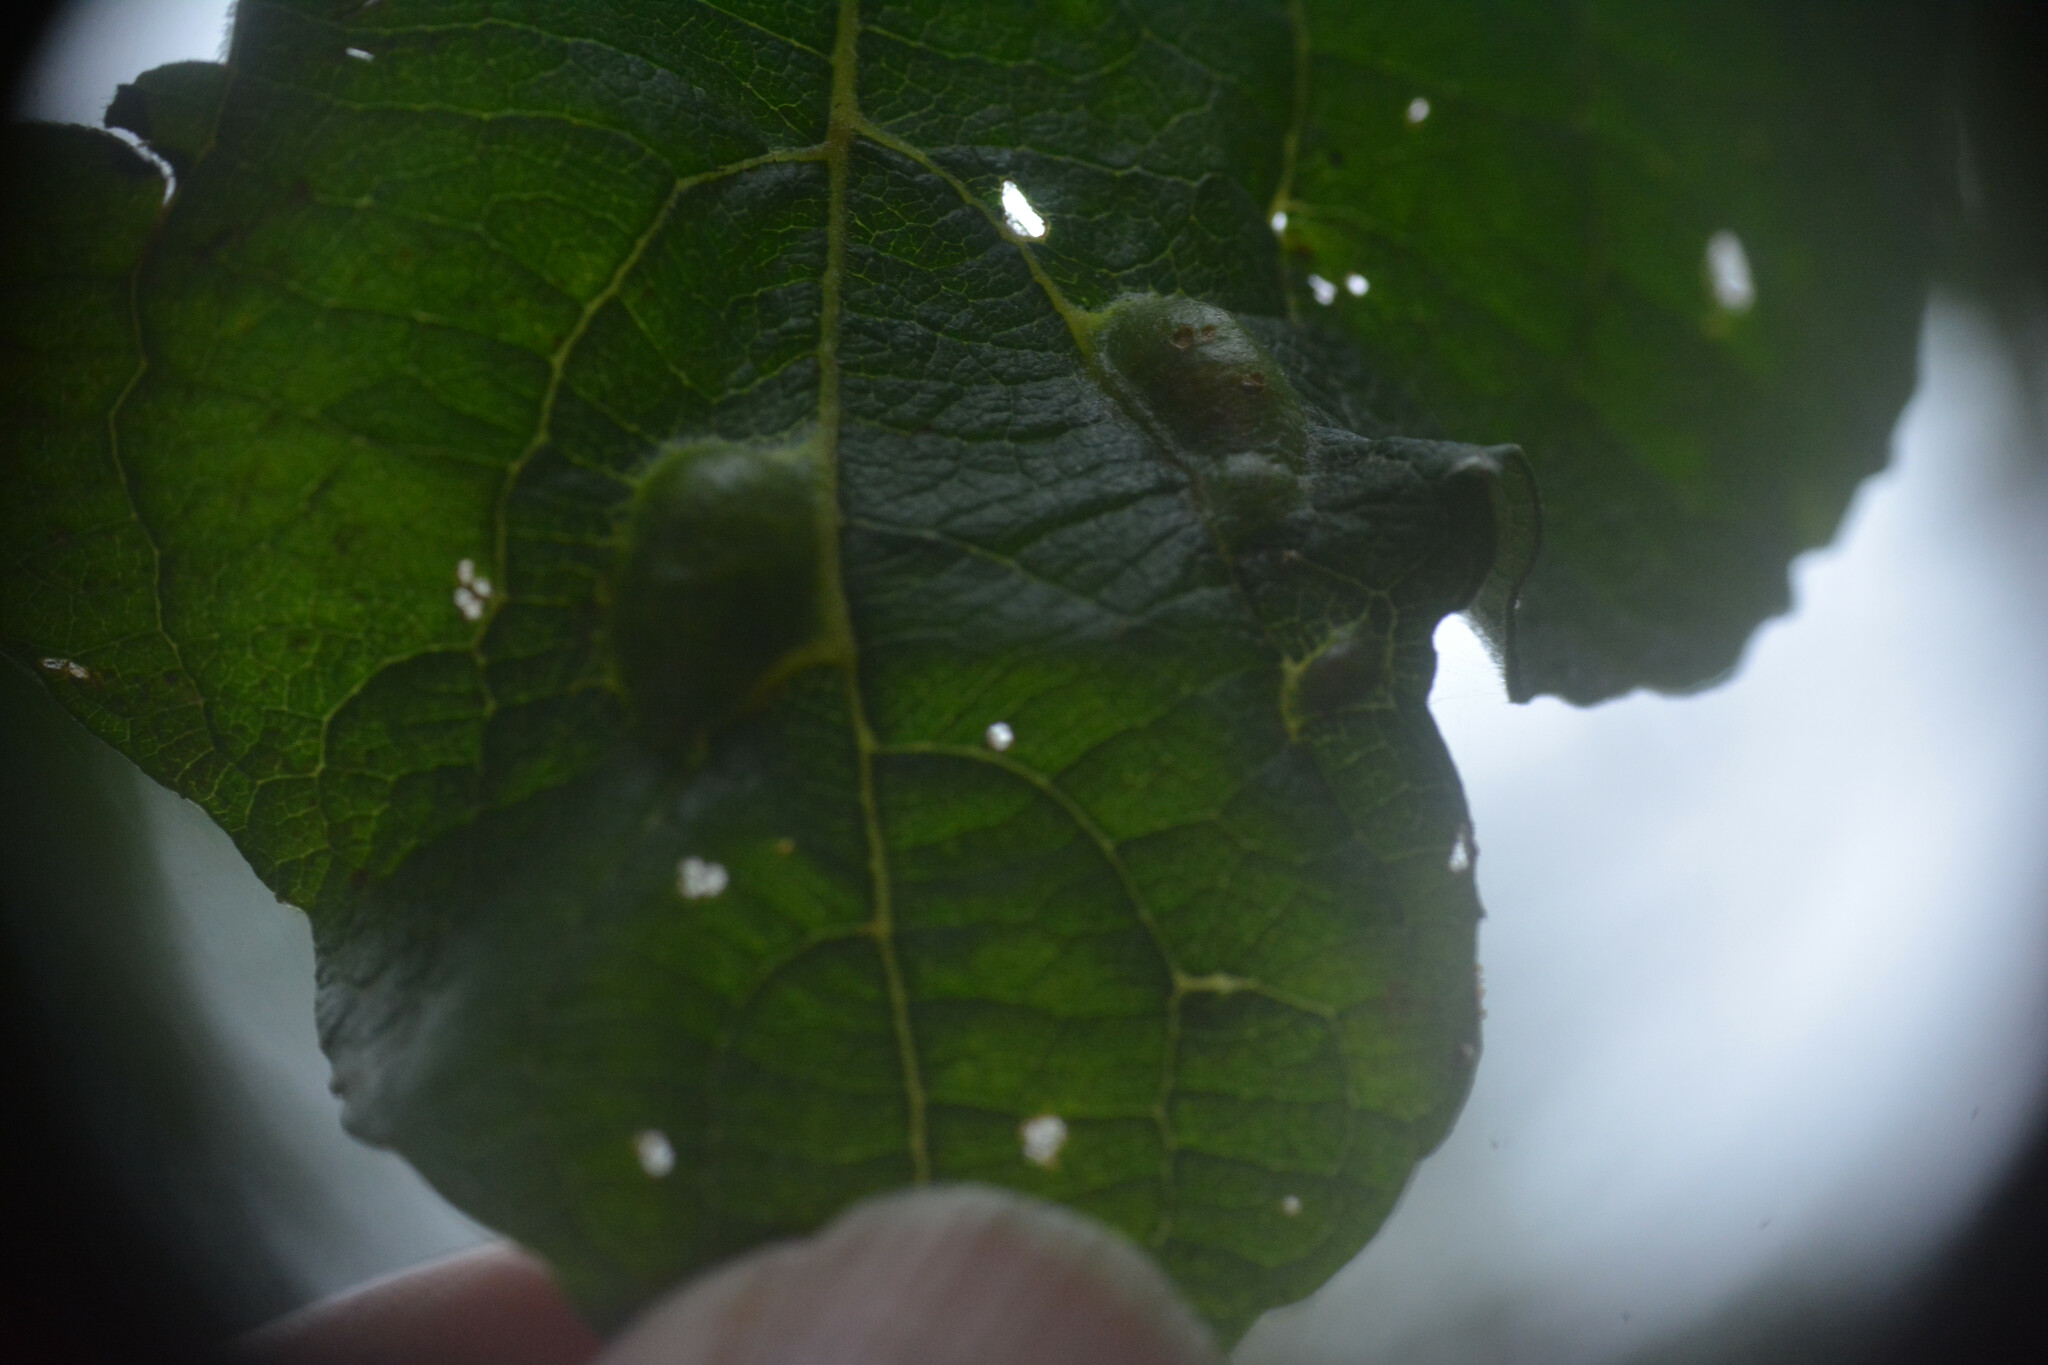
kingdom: Animalia
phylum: Arthropoda
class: Insecta
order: Hymenoptera
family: Tenthredinidae
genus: Pontania
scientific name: Pontania bridgmanii
